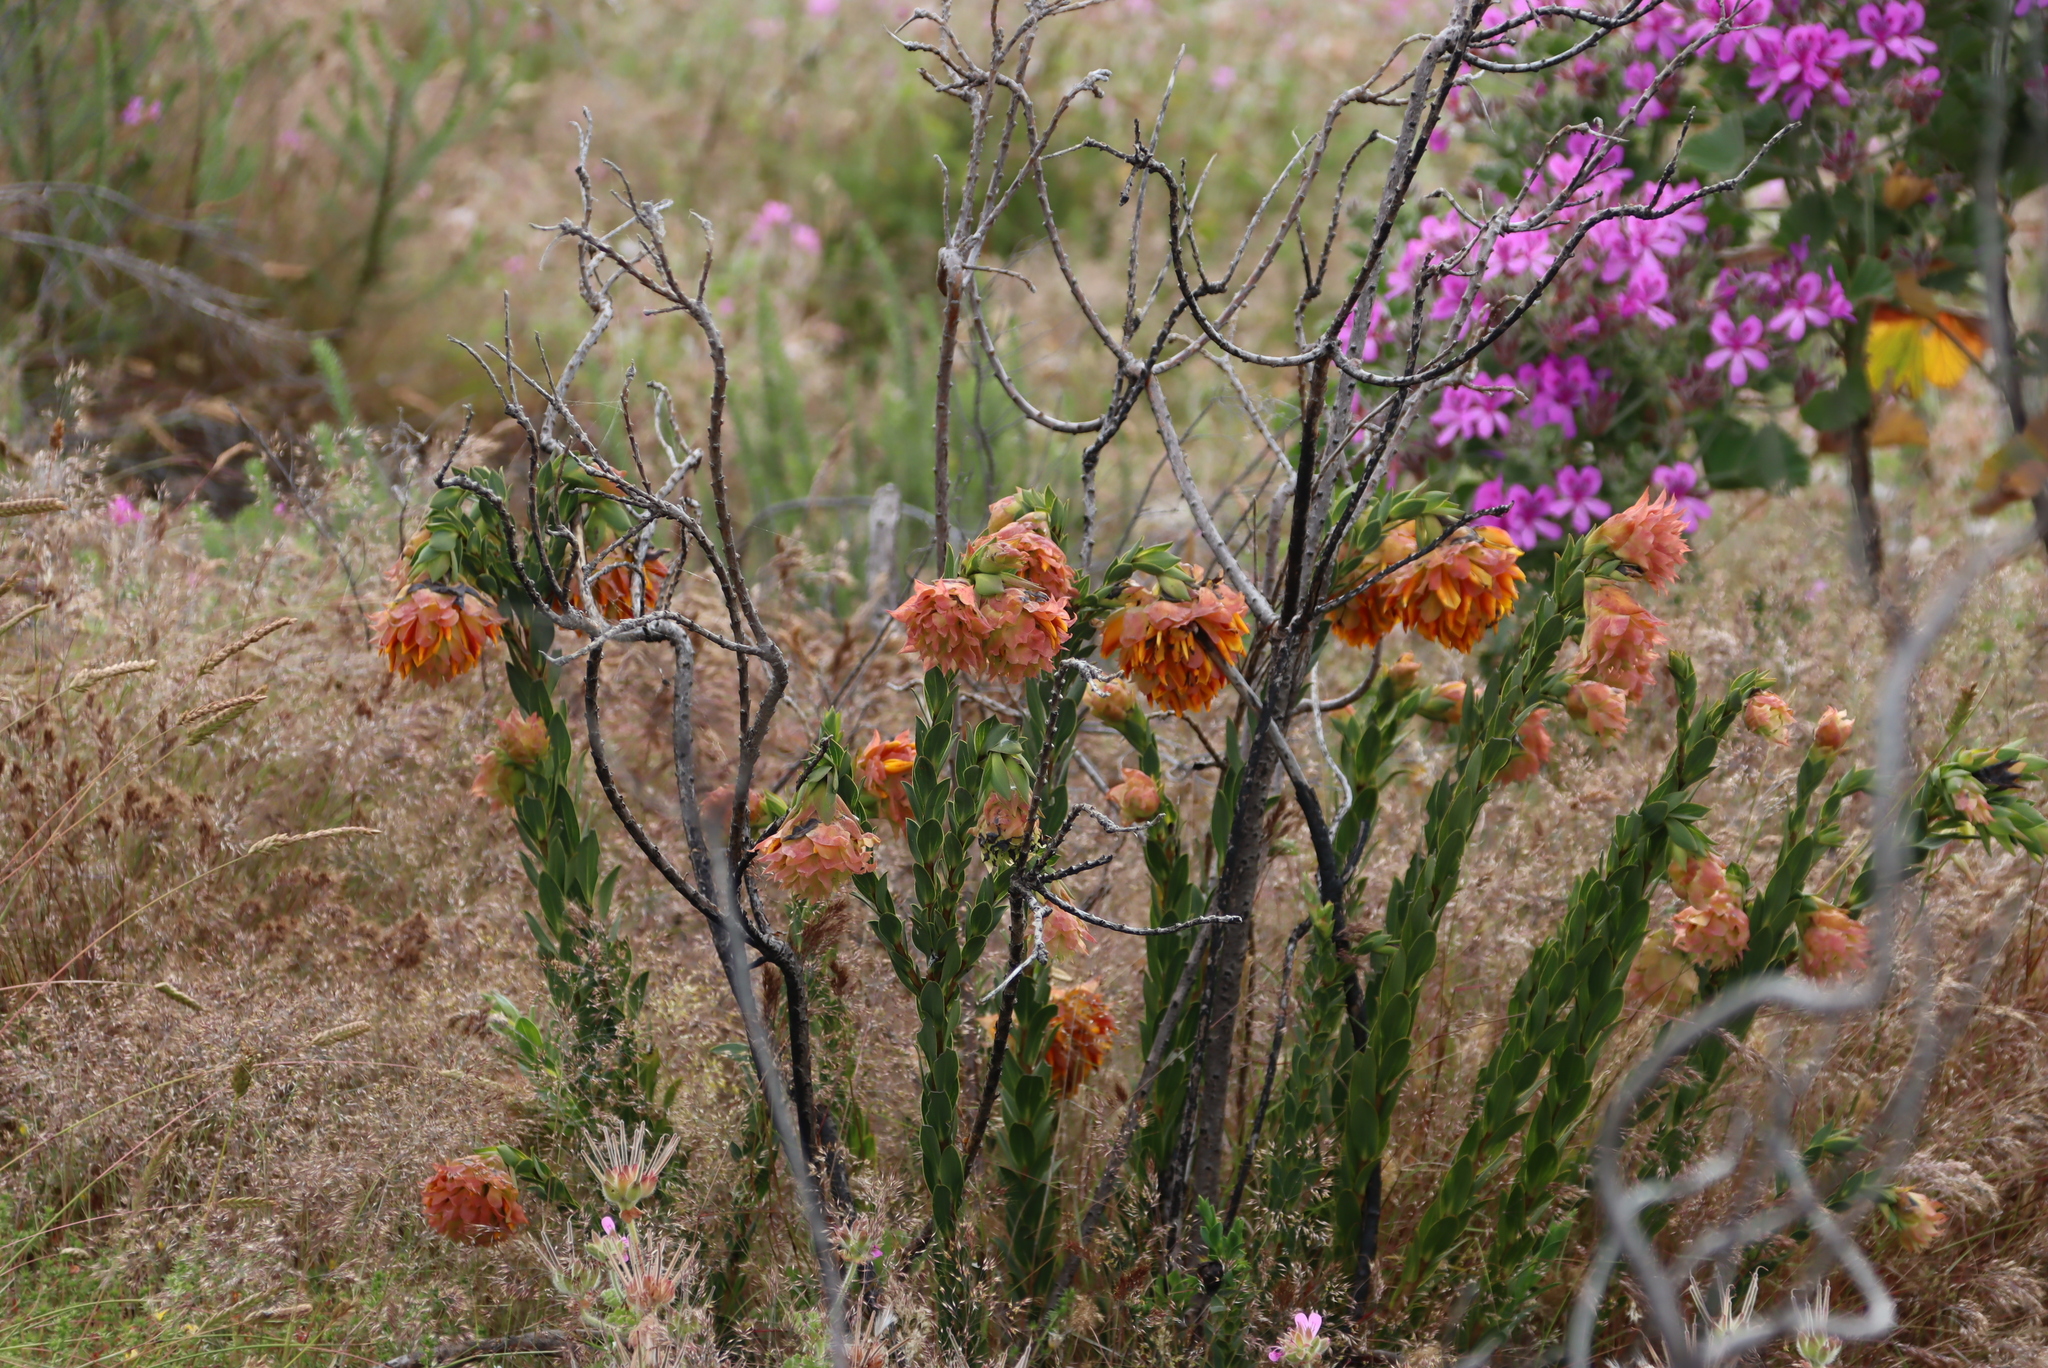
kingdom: Plantae
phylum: Tracheophyta
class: Magnoliopsida
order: Fabales
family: Fabaceae
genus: Liparia
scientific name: Liparia splendens
